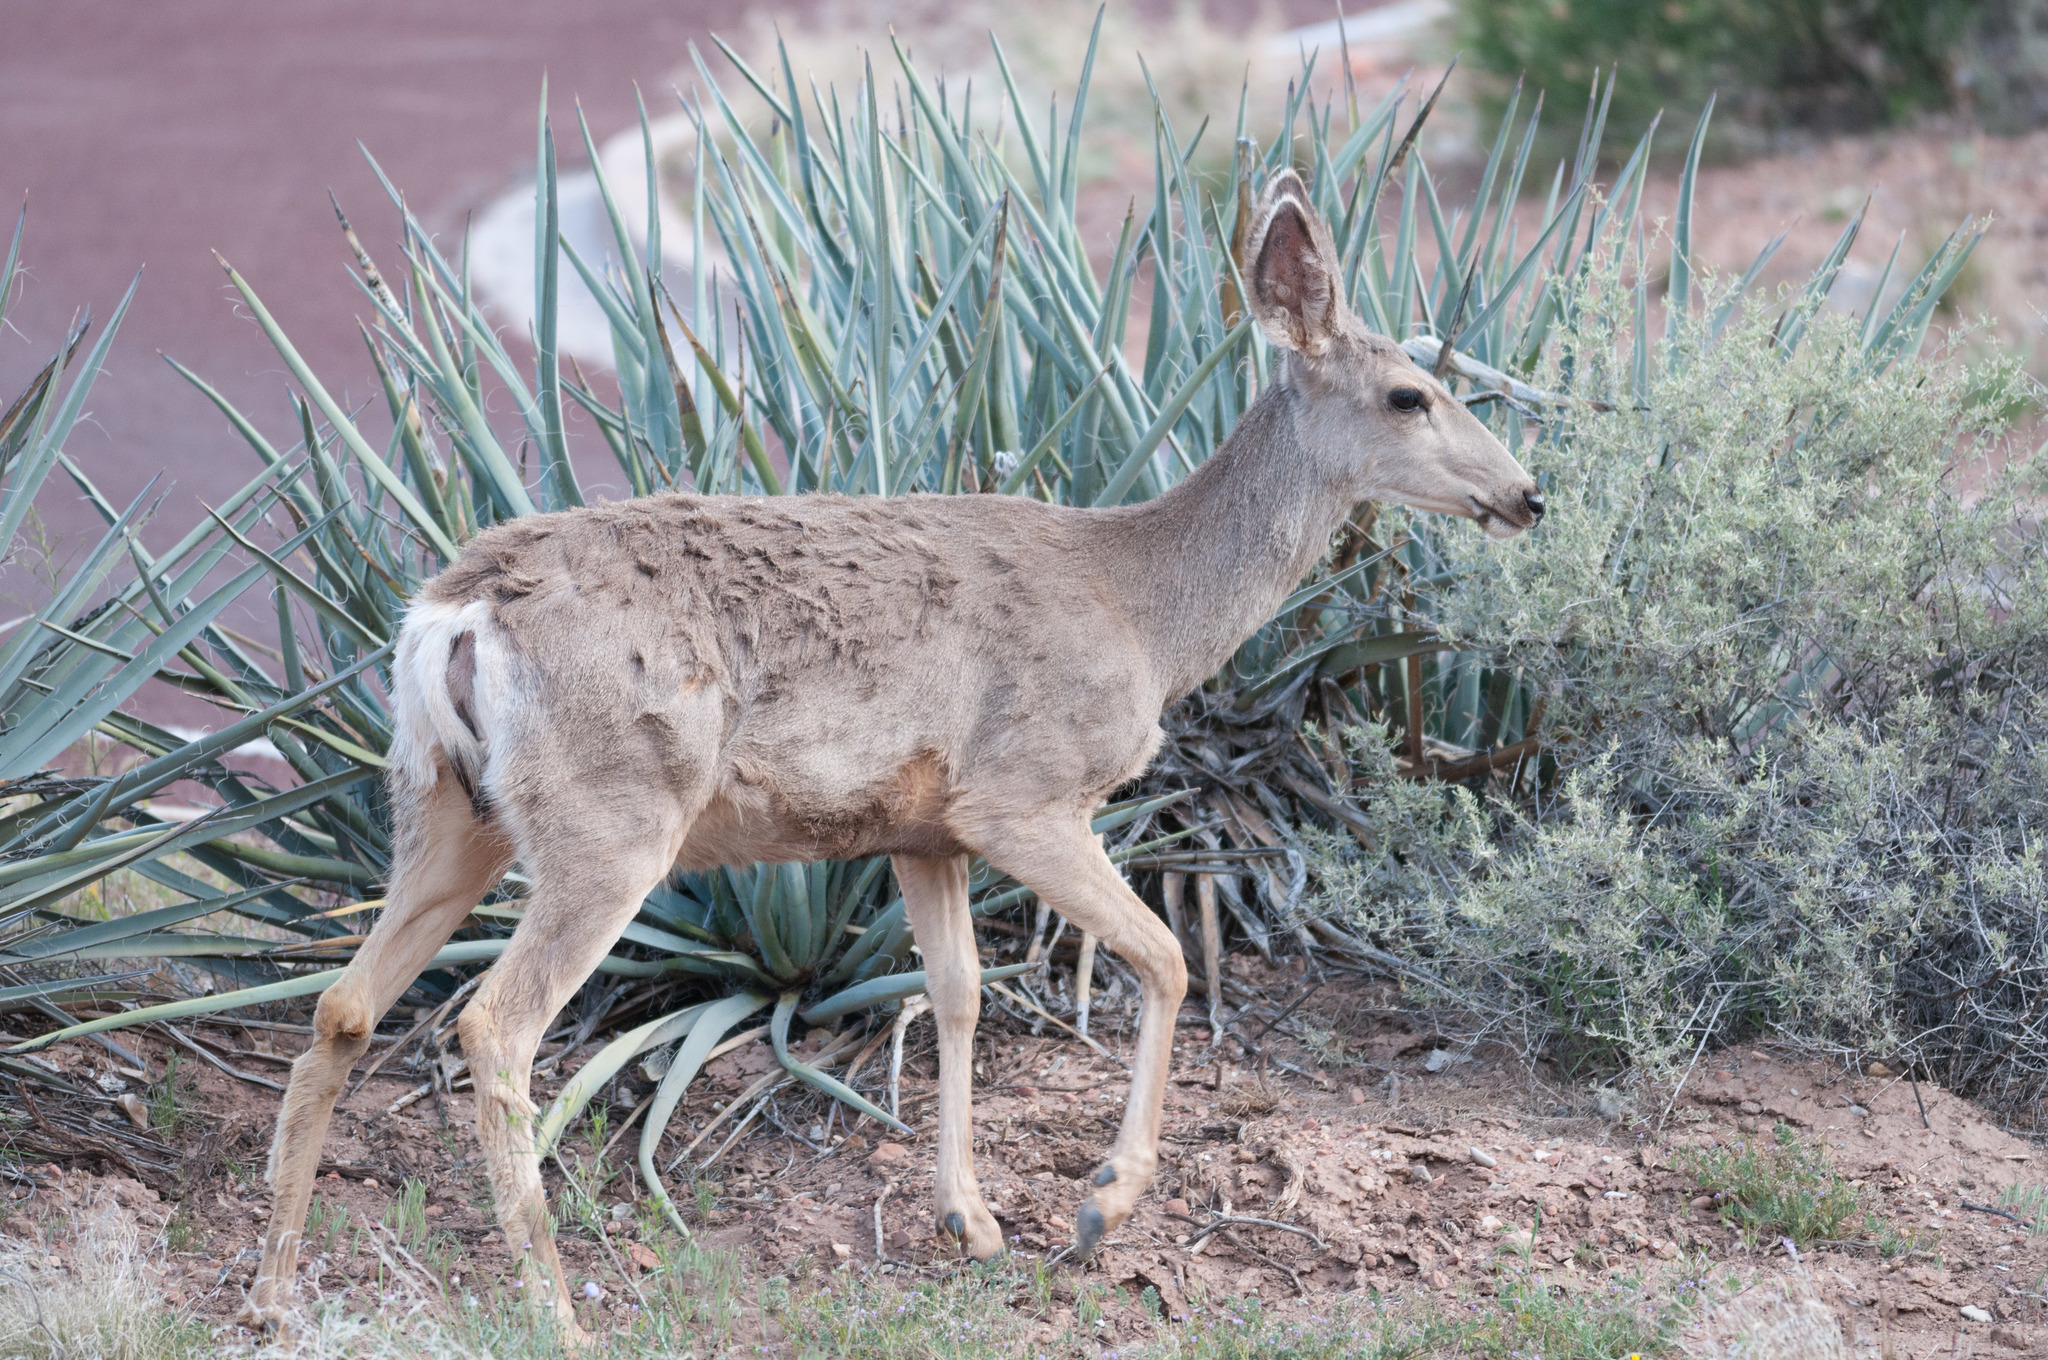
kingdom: Animalia
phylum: Chordata
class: Mammalia
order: Artiodactyla
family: Cervidae
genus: Odocoileus
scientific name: Odocoileus hemionus
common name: Mule deer
